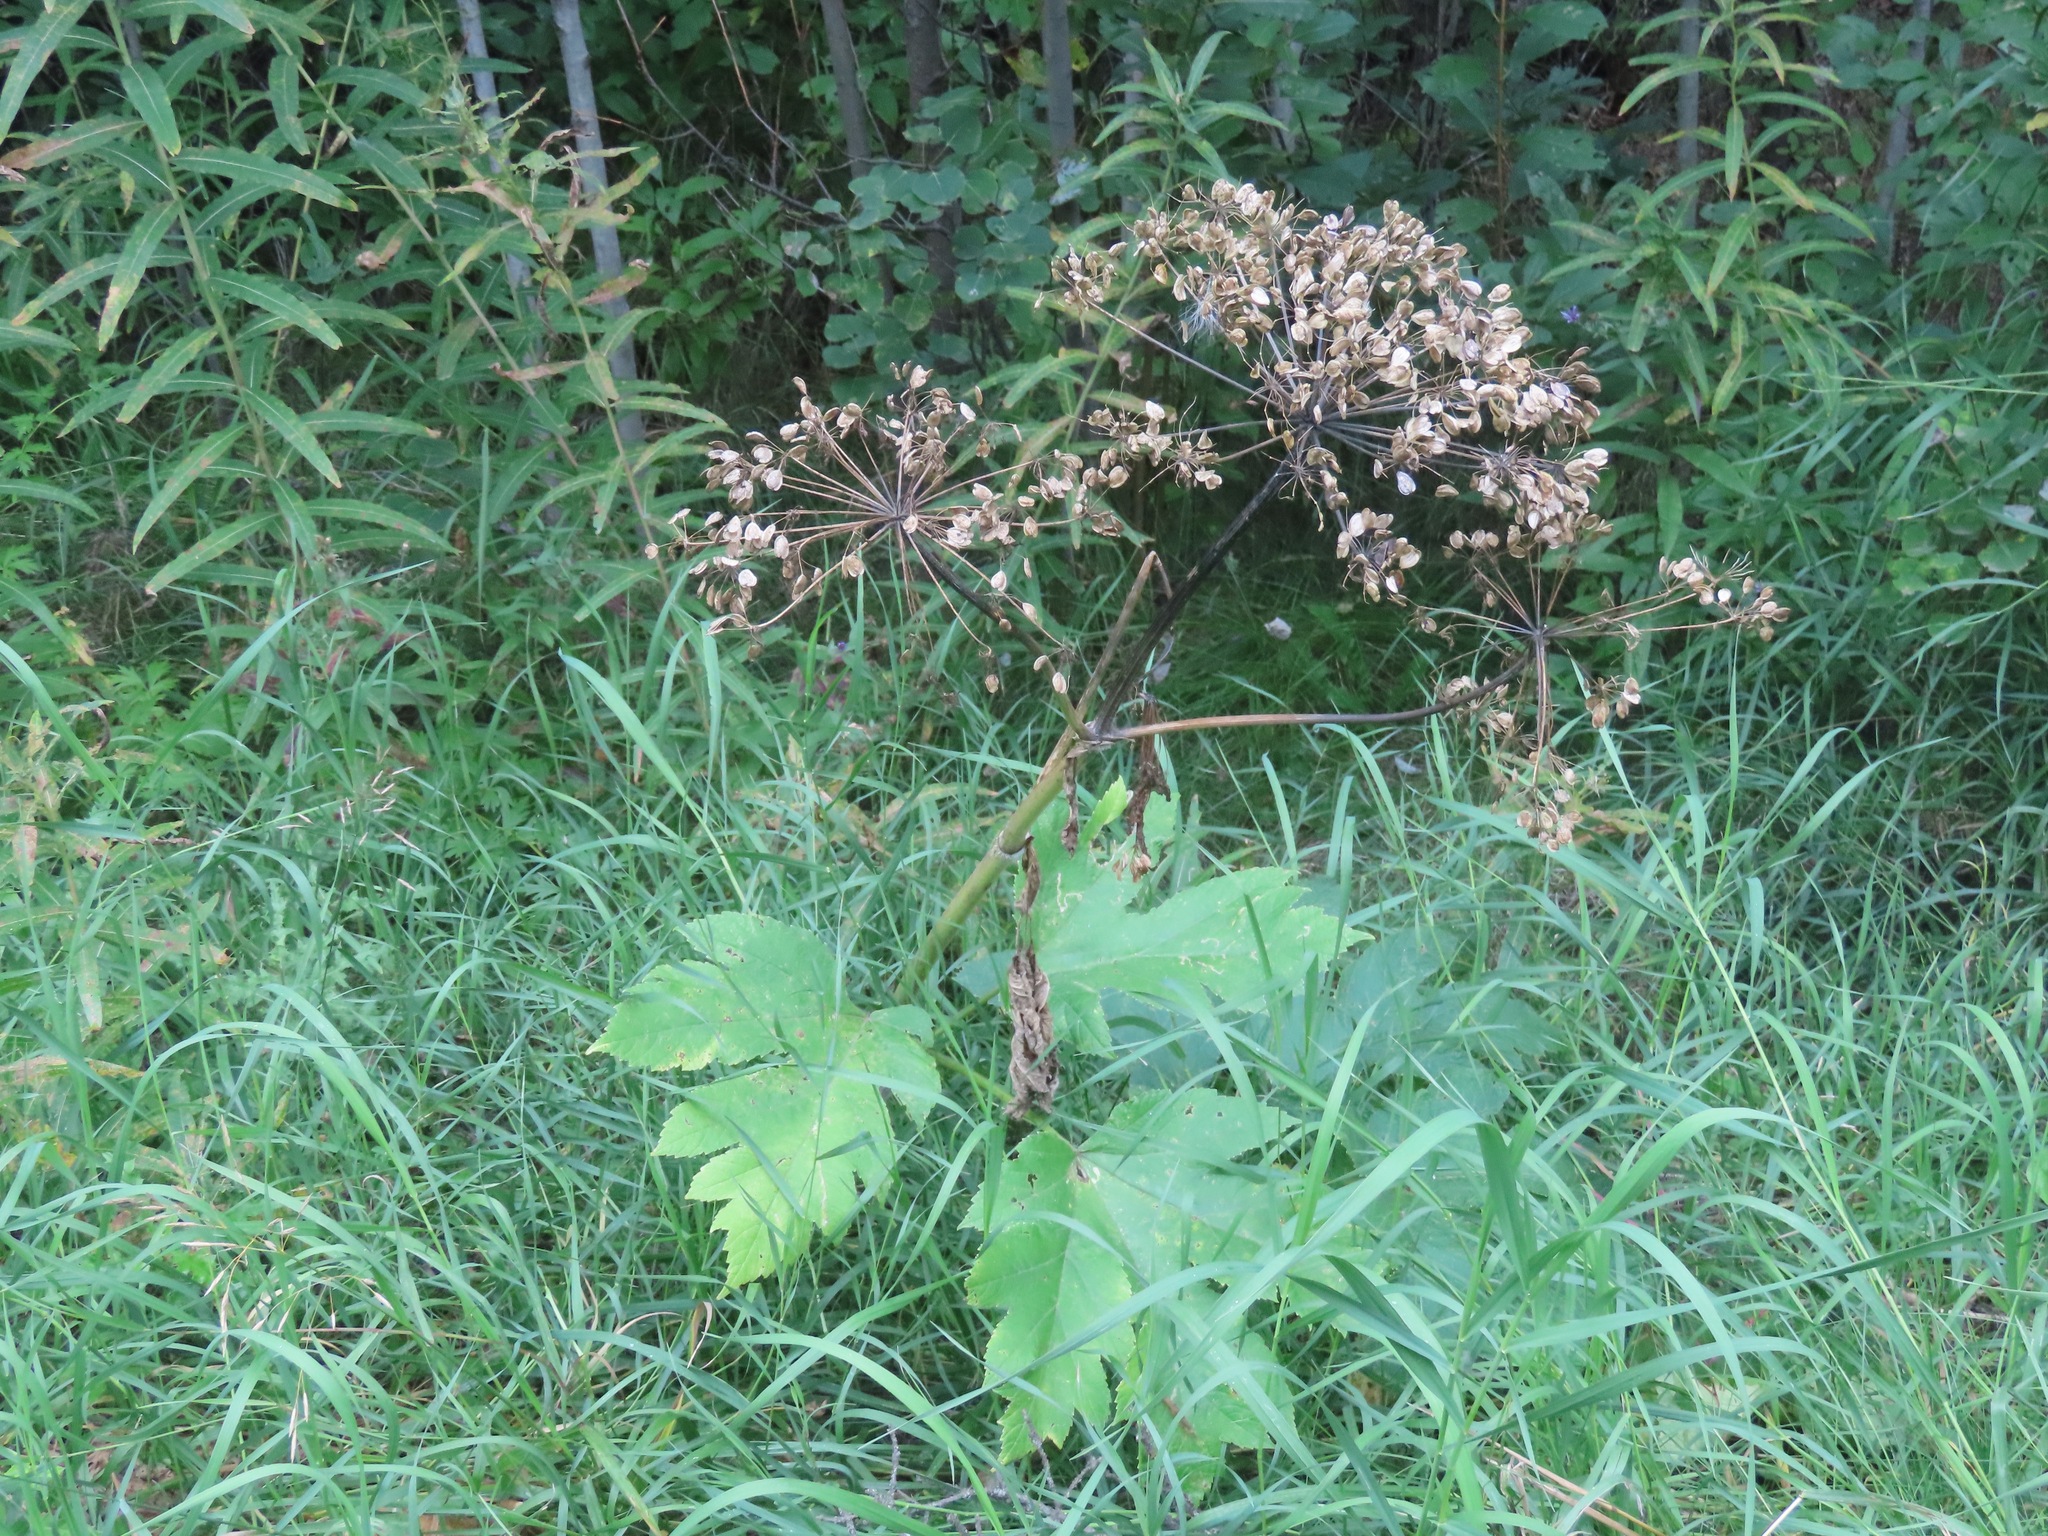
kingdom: Plantae
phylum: Tracheophyta
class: Magnoliopsida
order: Apiales
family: Apiaceae
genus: Heracleum
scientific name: Heracleum maximum
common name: American cow parsnip
